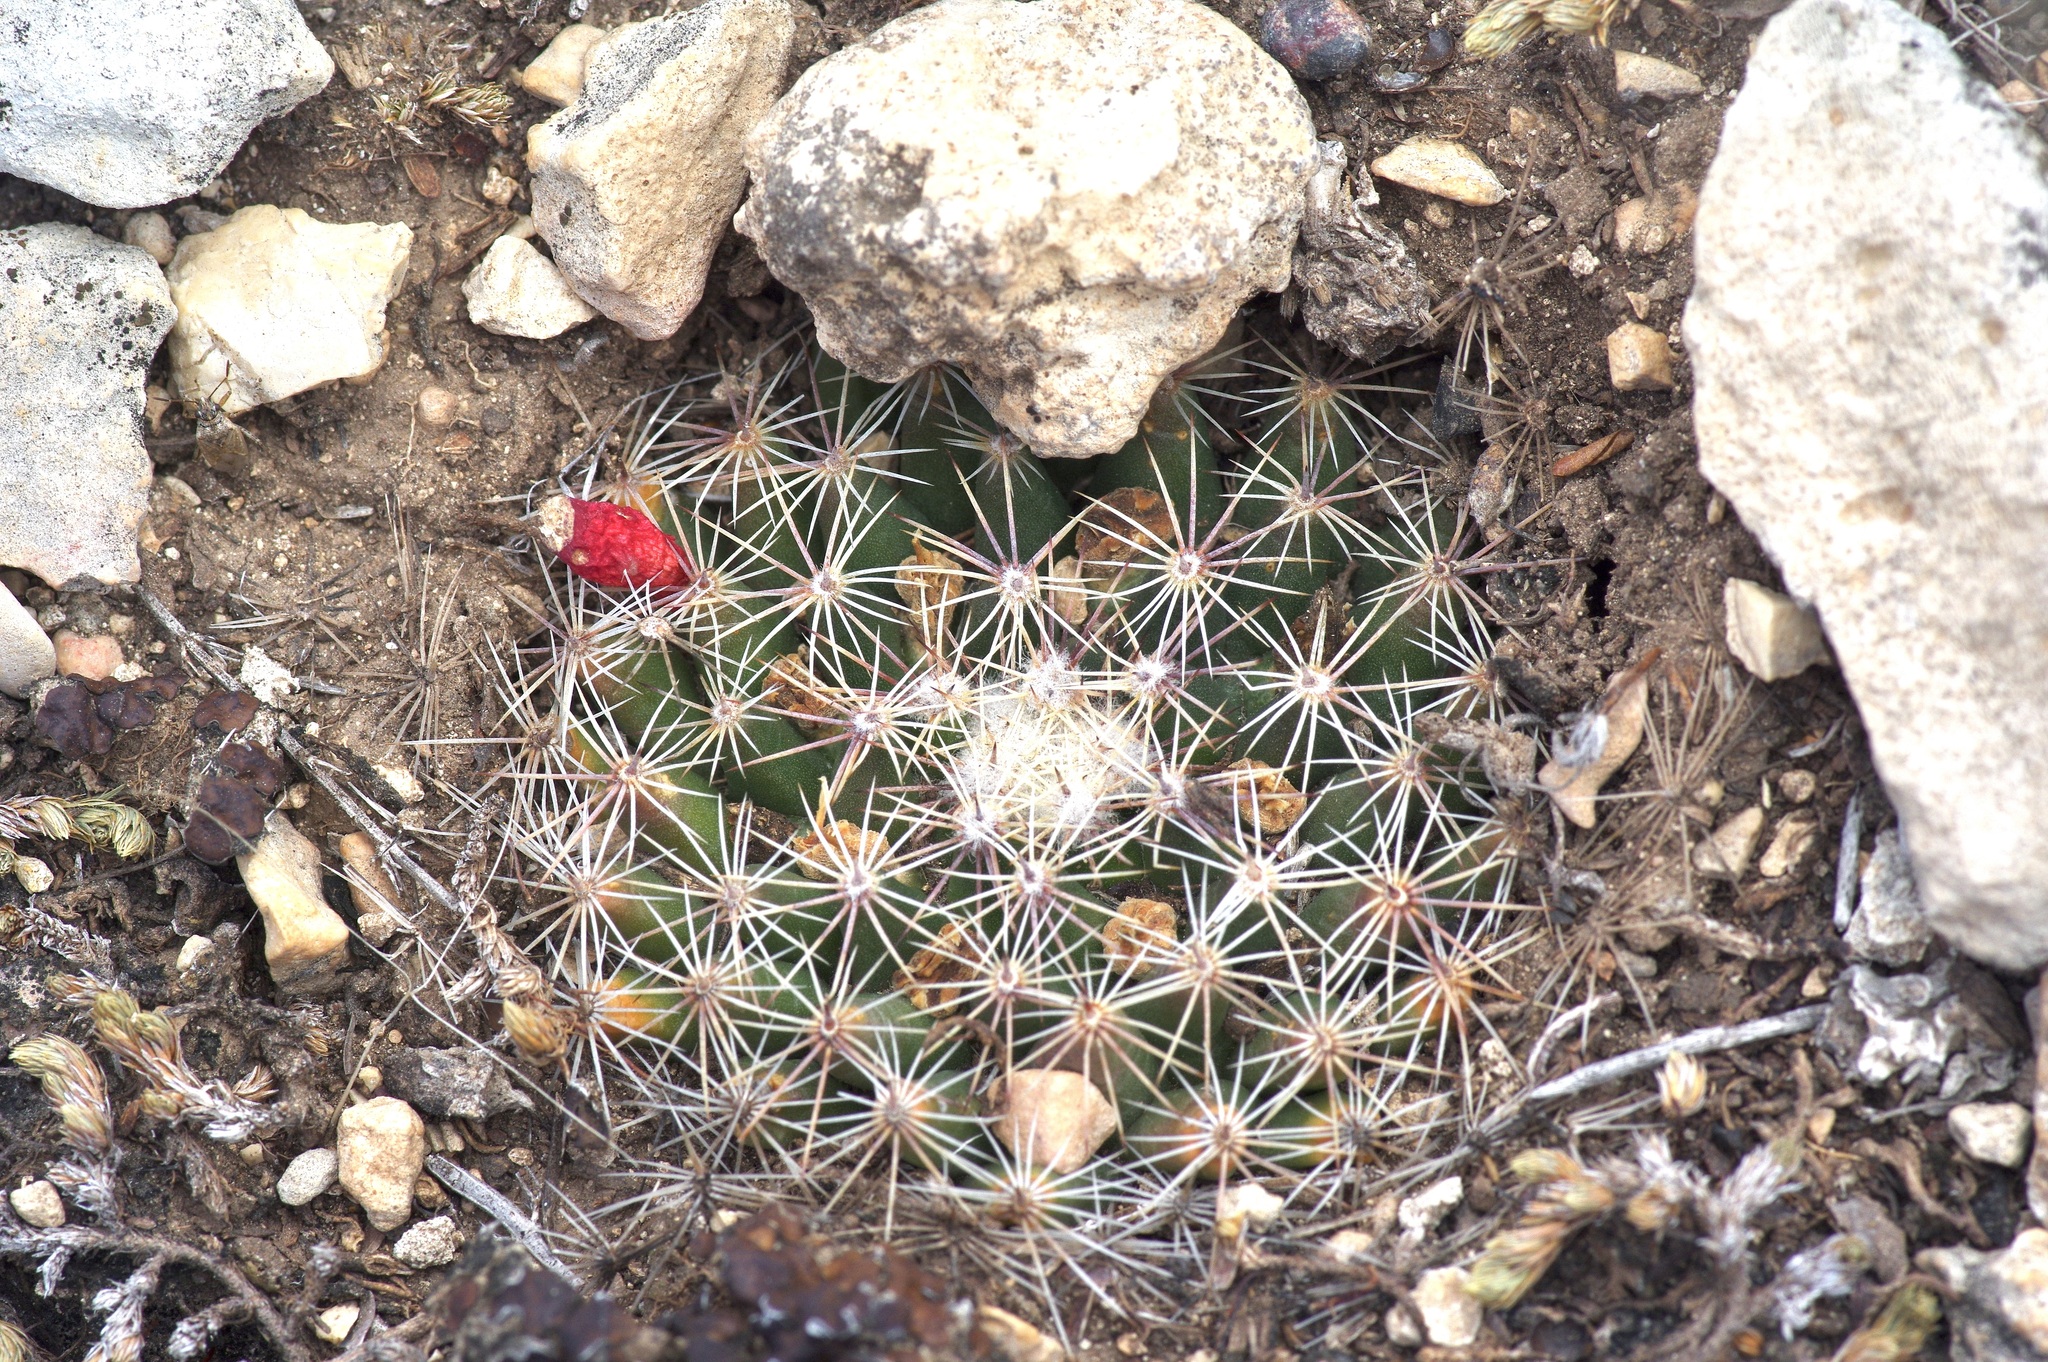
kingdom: Plantae
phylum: Tracheophyta
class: Magnoliopsida
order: Caryophyllales
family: Cactaceae
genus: Mammillaria
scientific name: Mammillaria heyderi
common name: Little nipple cactus
